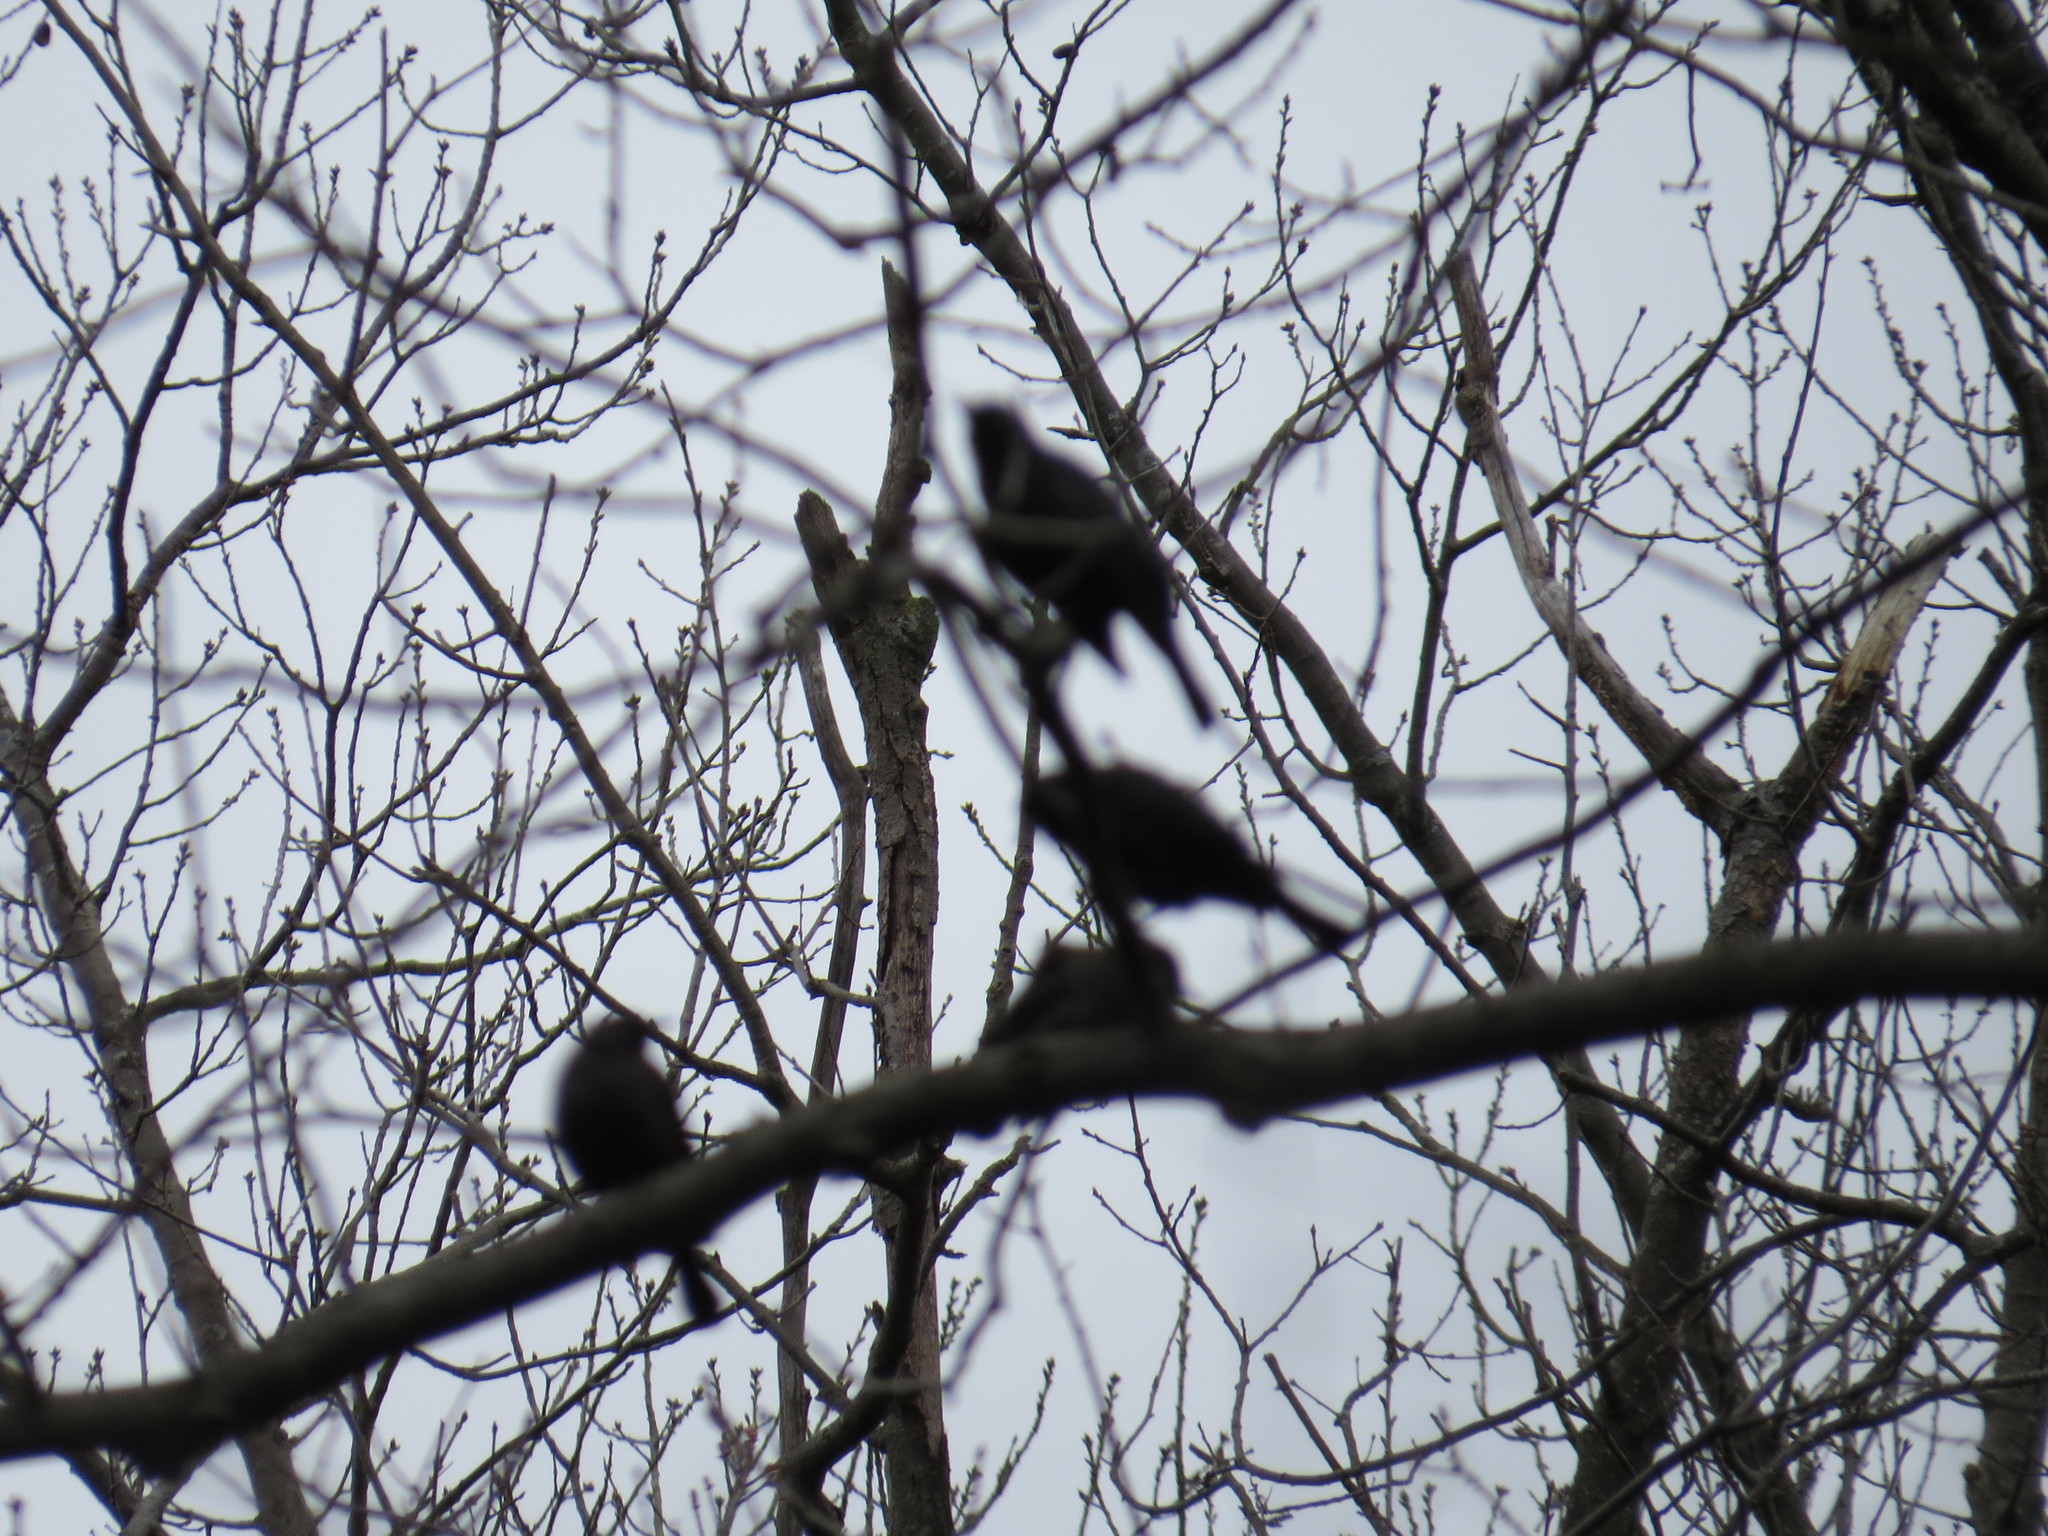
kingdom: Animalia
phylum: Chordata
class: Aves
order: Passeriformes
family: Icteridae
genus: Quiscalus
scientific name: Quiscalus quiscula
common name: Common grackle
